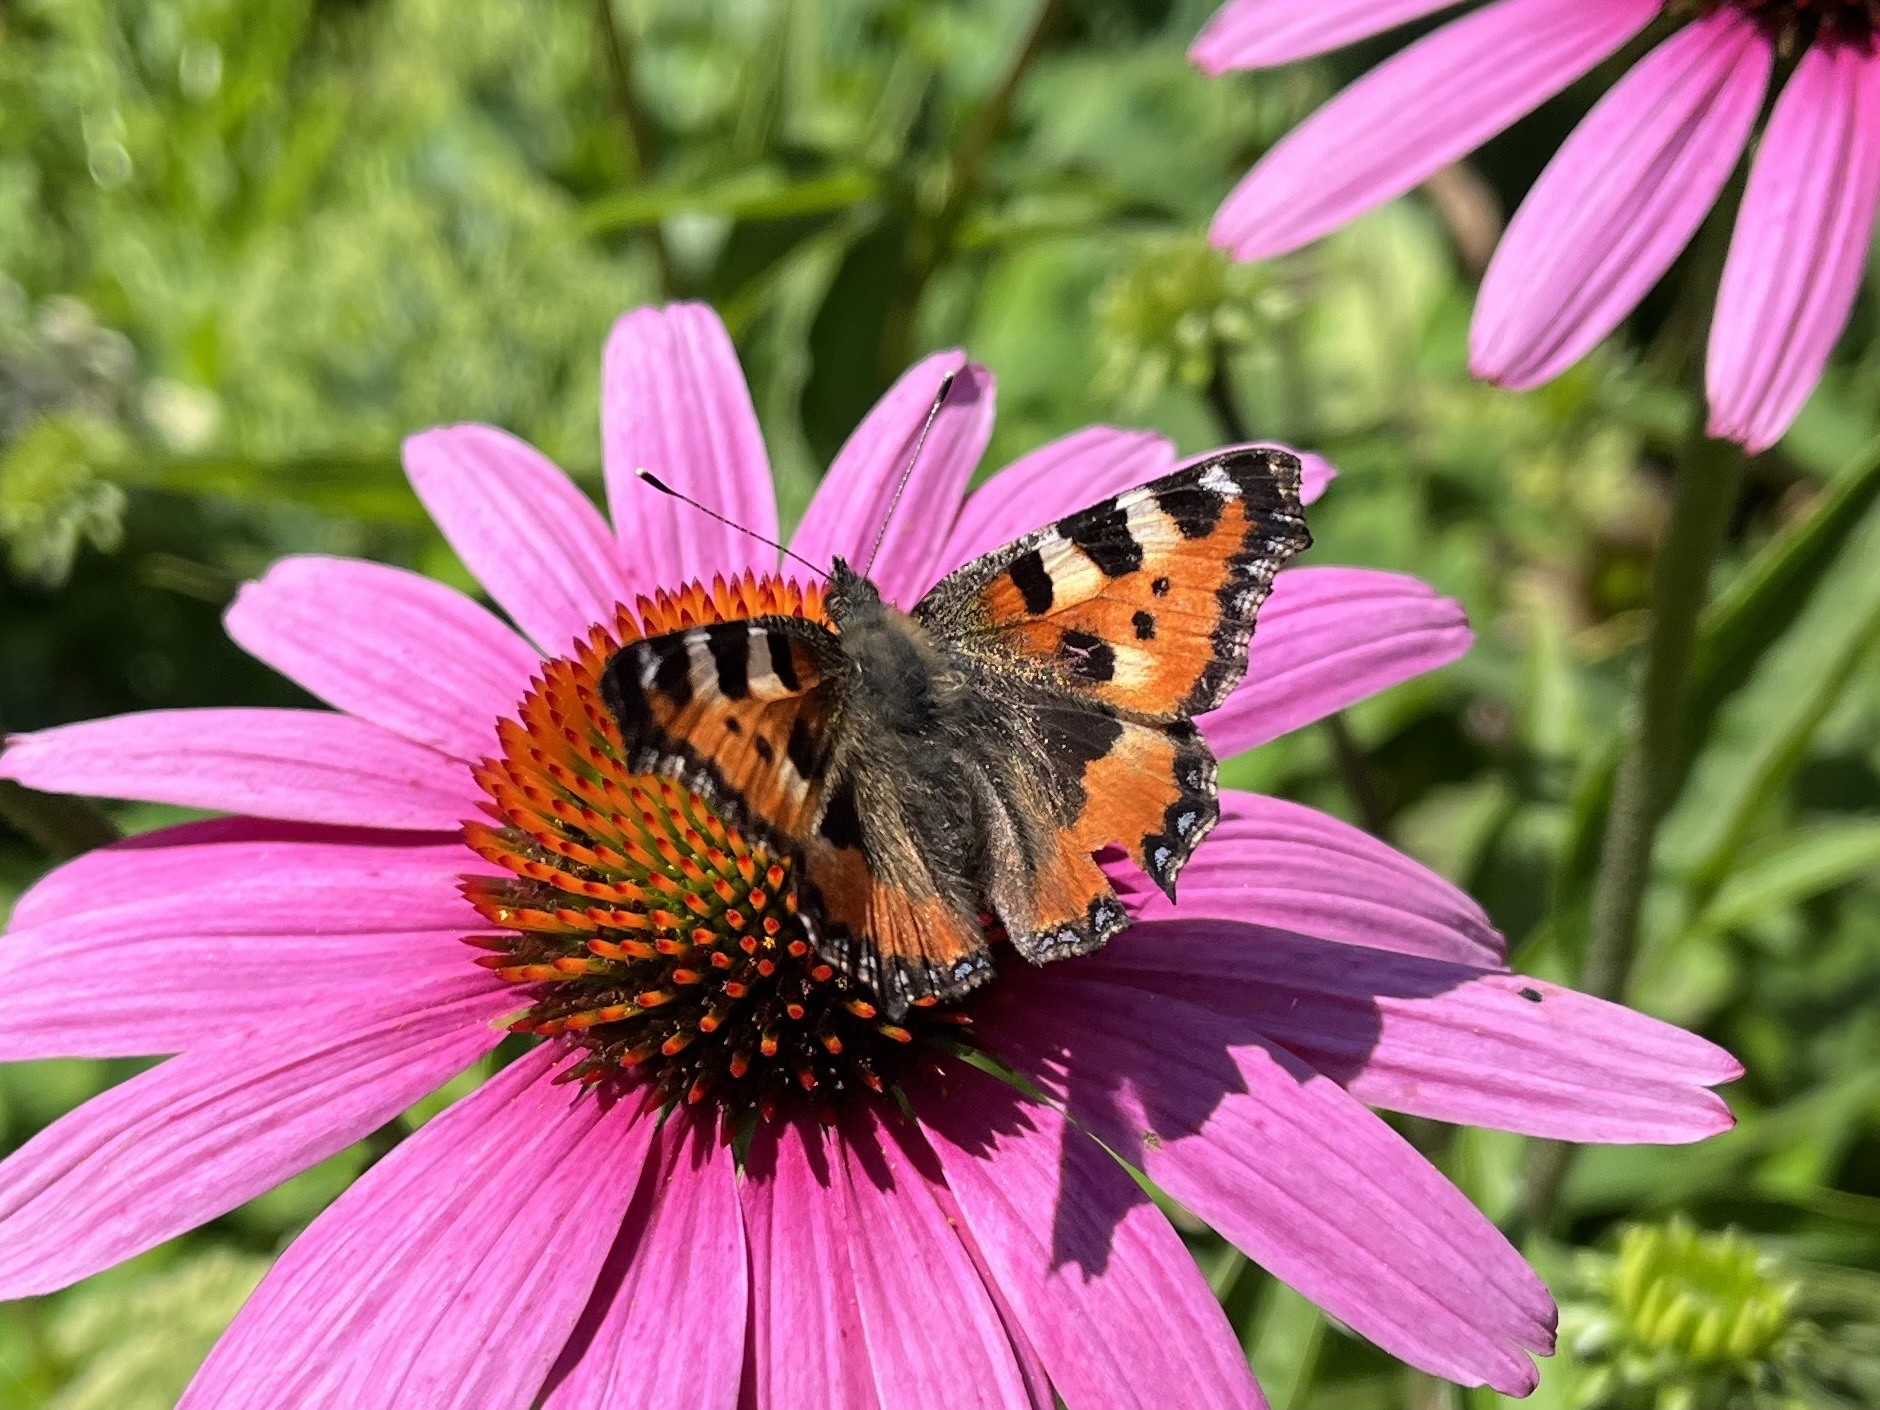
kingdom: Animalia
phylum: Arthropoda
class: Insecta
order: Lepidoptera
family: Nymphalidae
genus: Aglais
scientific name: Aglais urticae
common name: Small tortoiseshell
